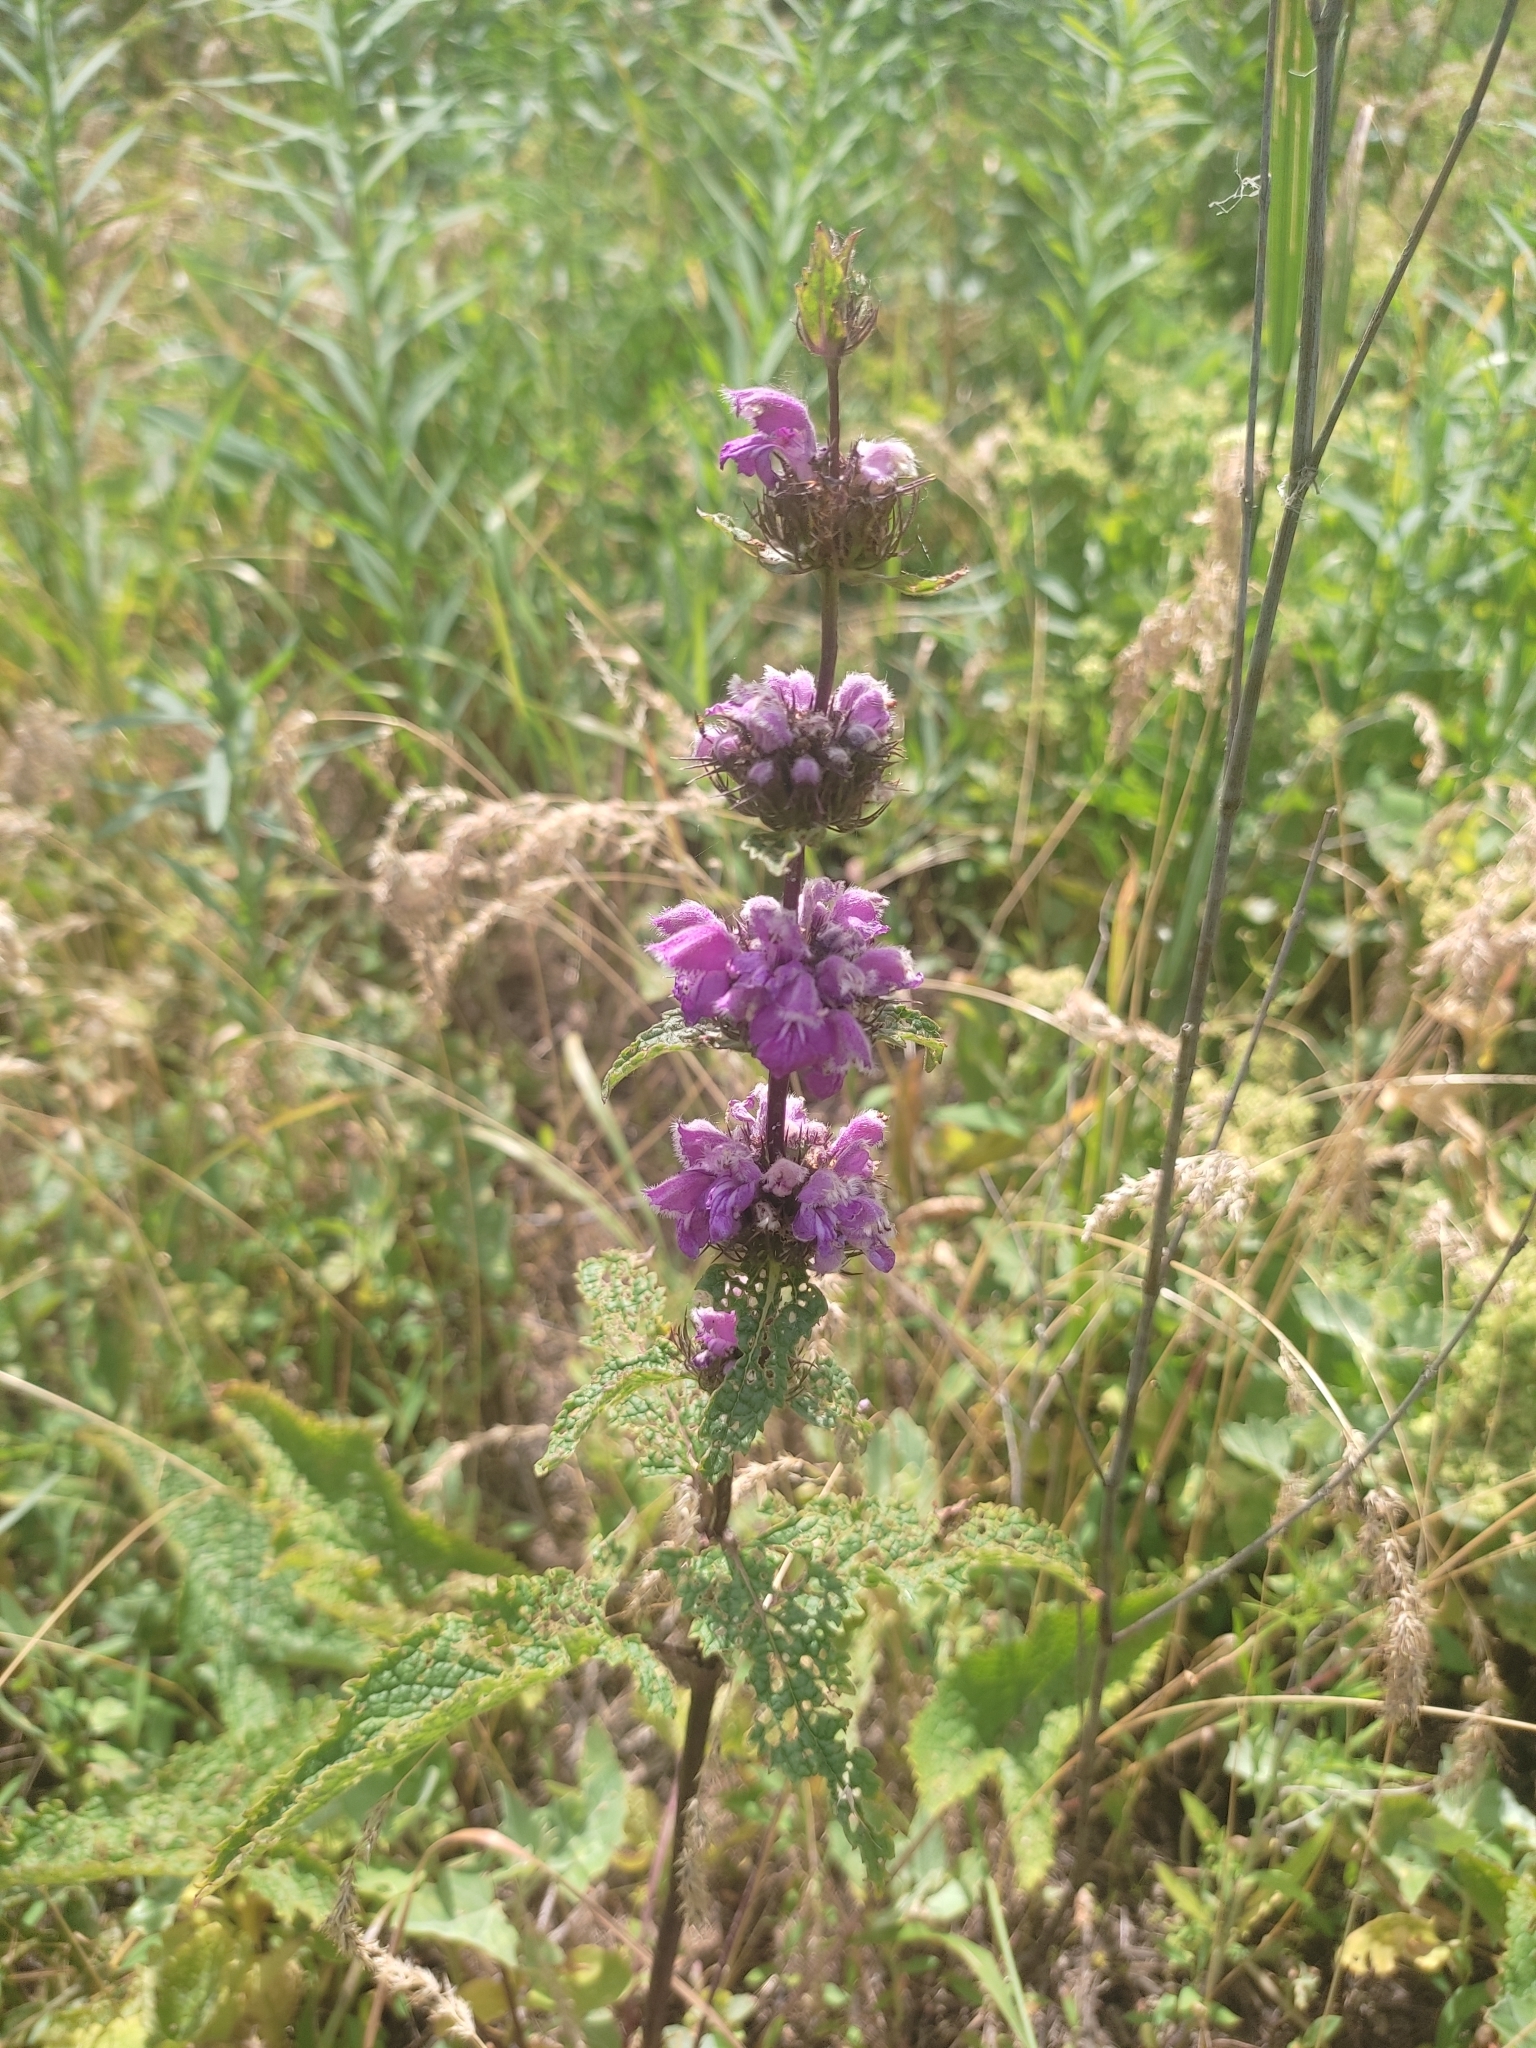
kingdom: Plantae
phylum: Tracheophyta
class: Magnoliopsida
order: Lamiales
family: Lamiaceae
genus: Phlomoides
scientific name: Phlomoides tuberosa
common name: Tuberous jerusalem sage
